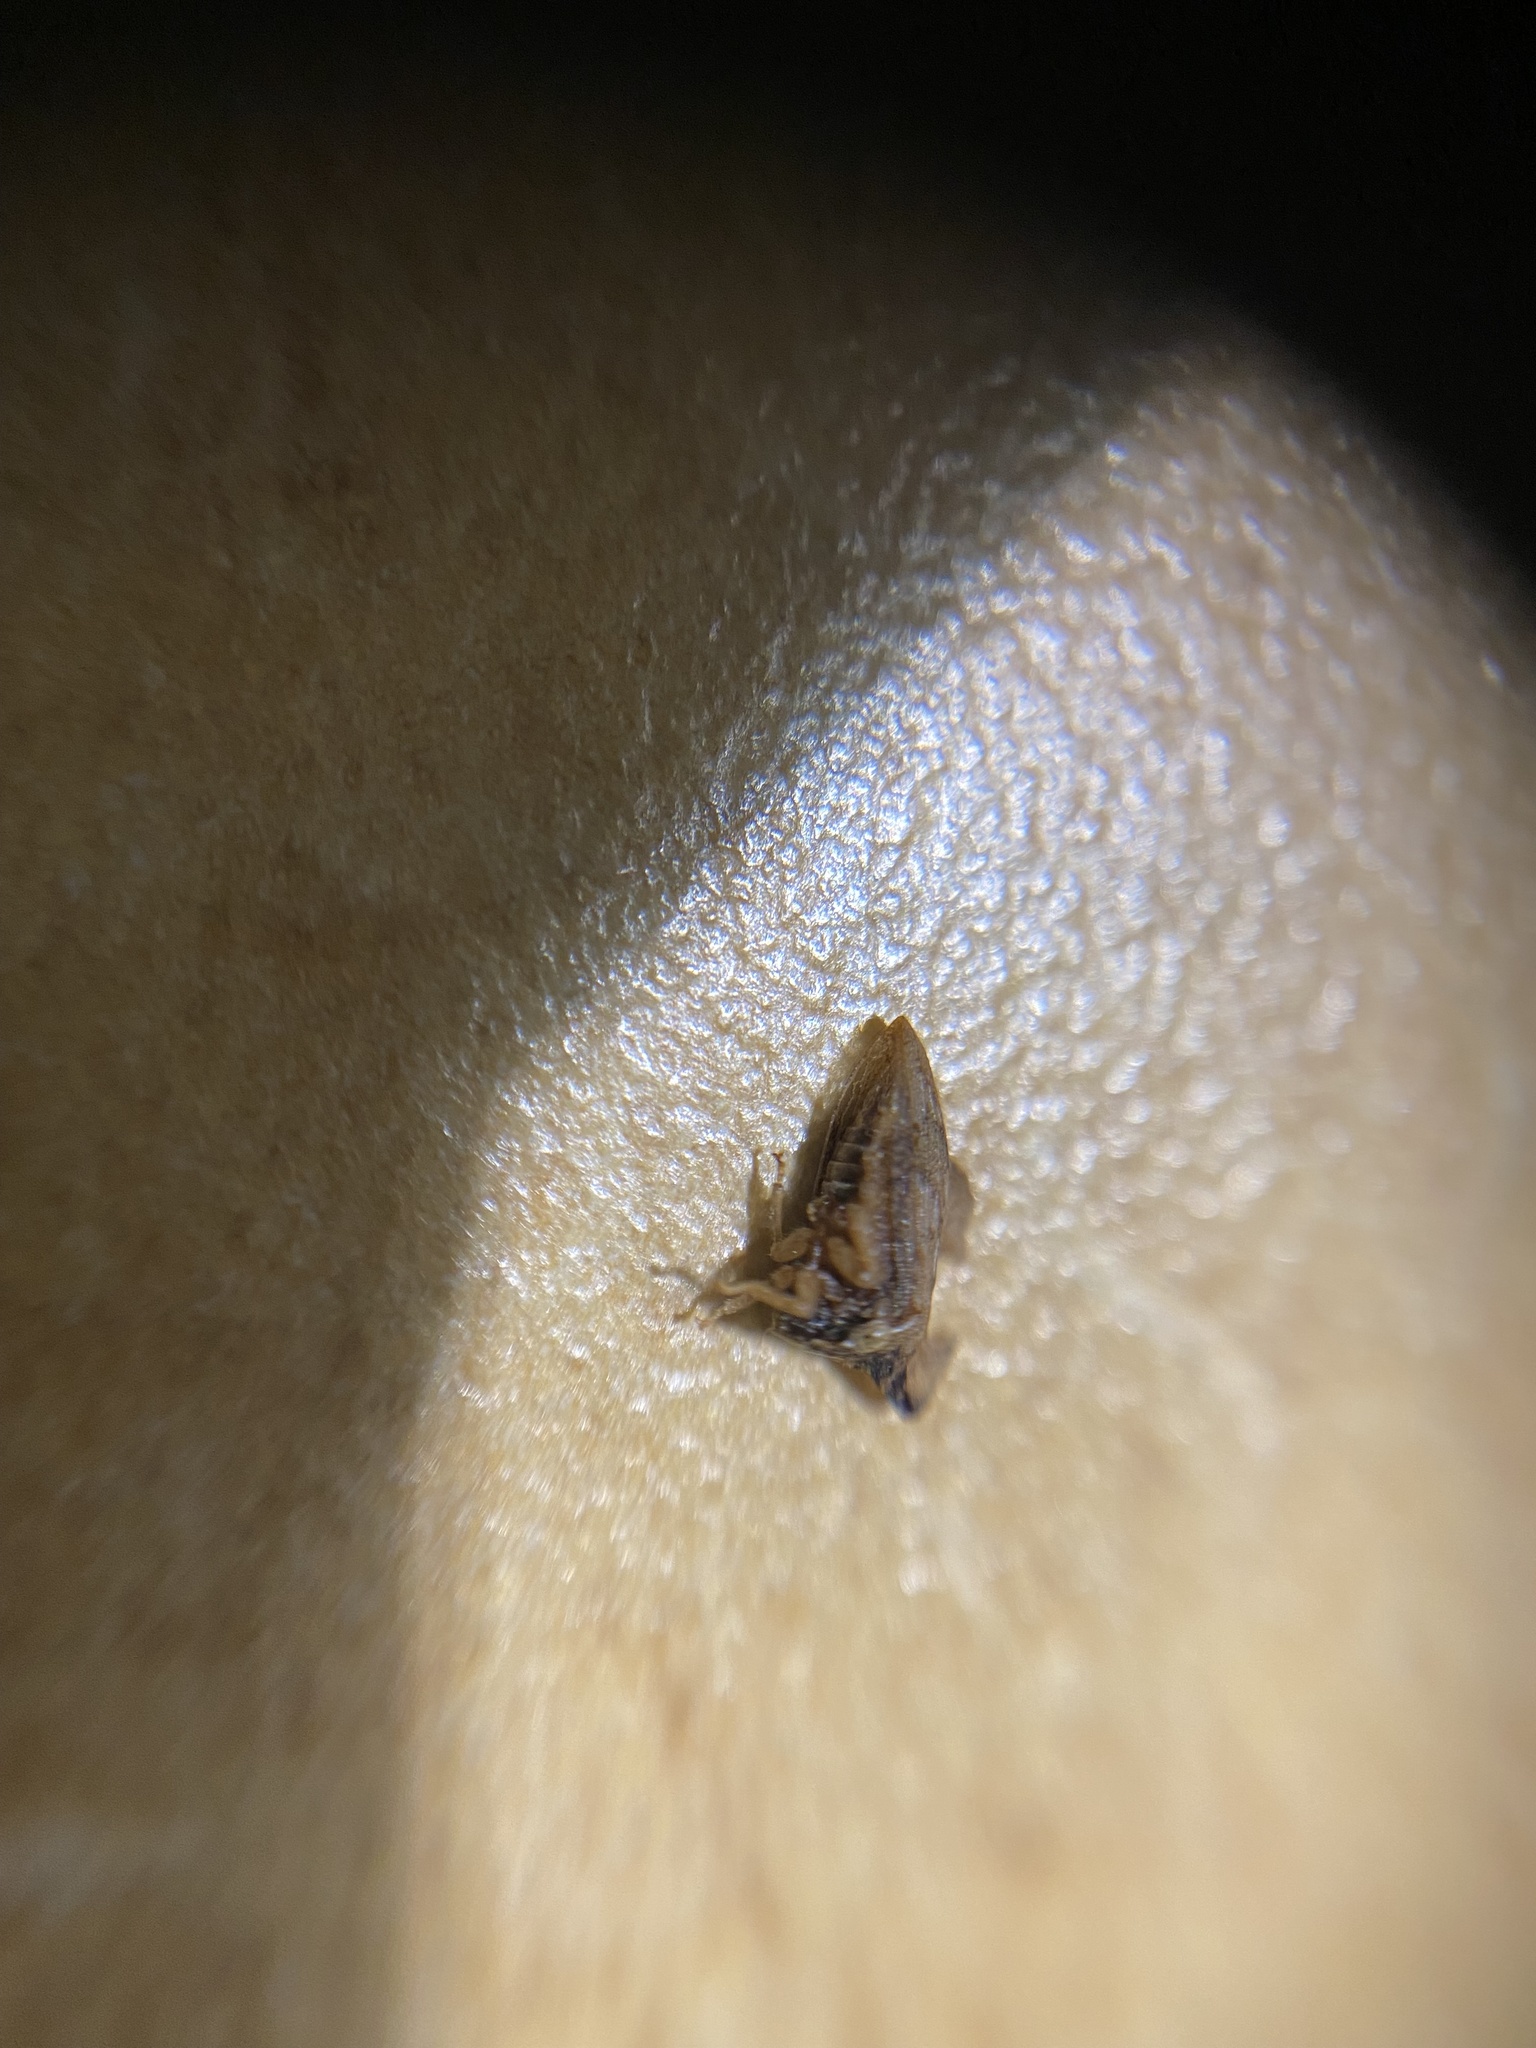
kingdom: Animalia
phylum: Arthropoda
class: Insecta
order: Hemiptera
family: Membracidae
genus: Entylia
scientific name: Entylia carinata
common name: Keeled treehopper
